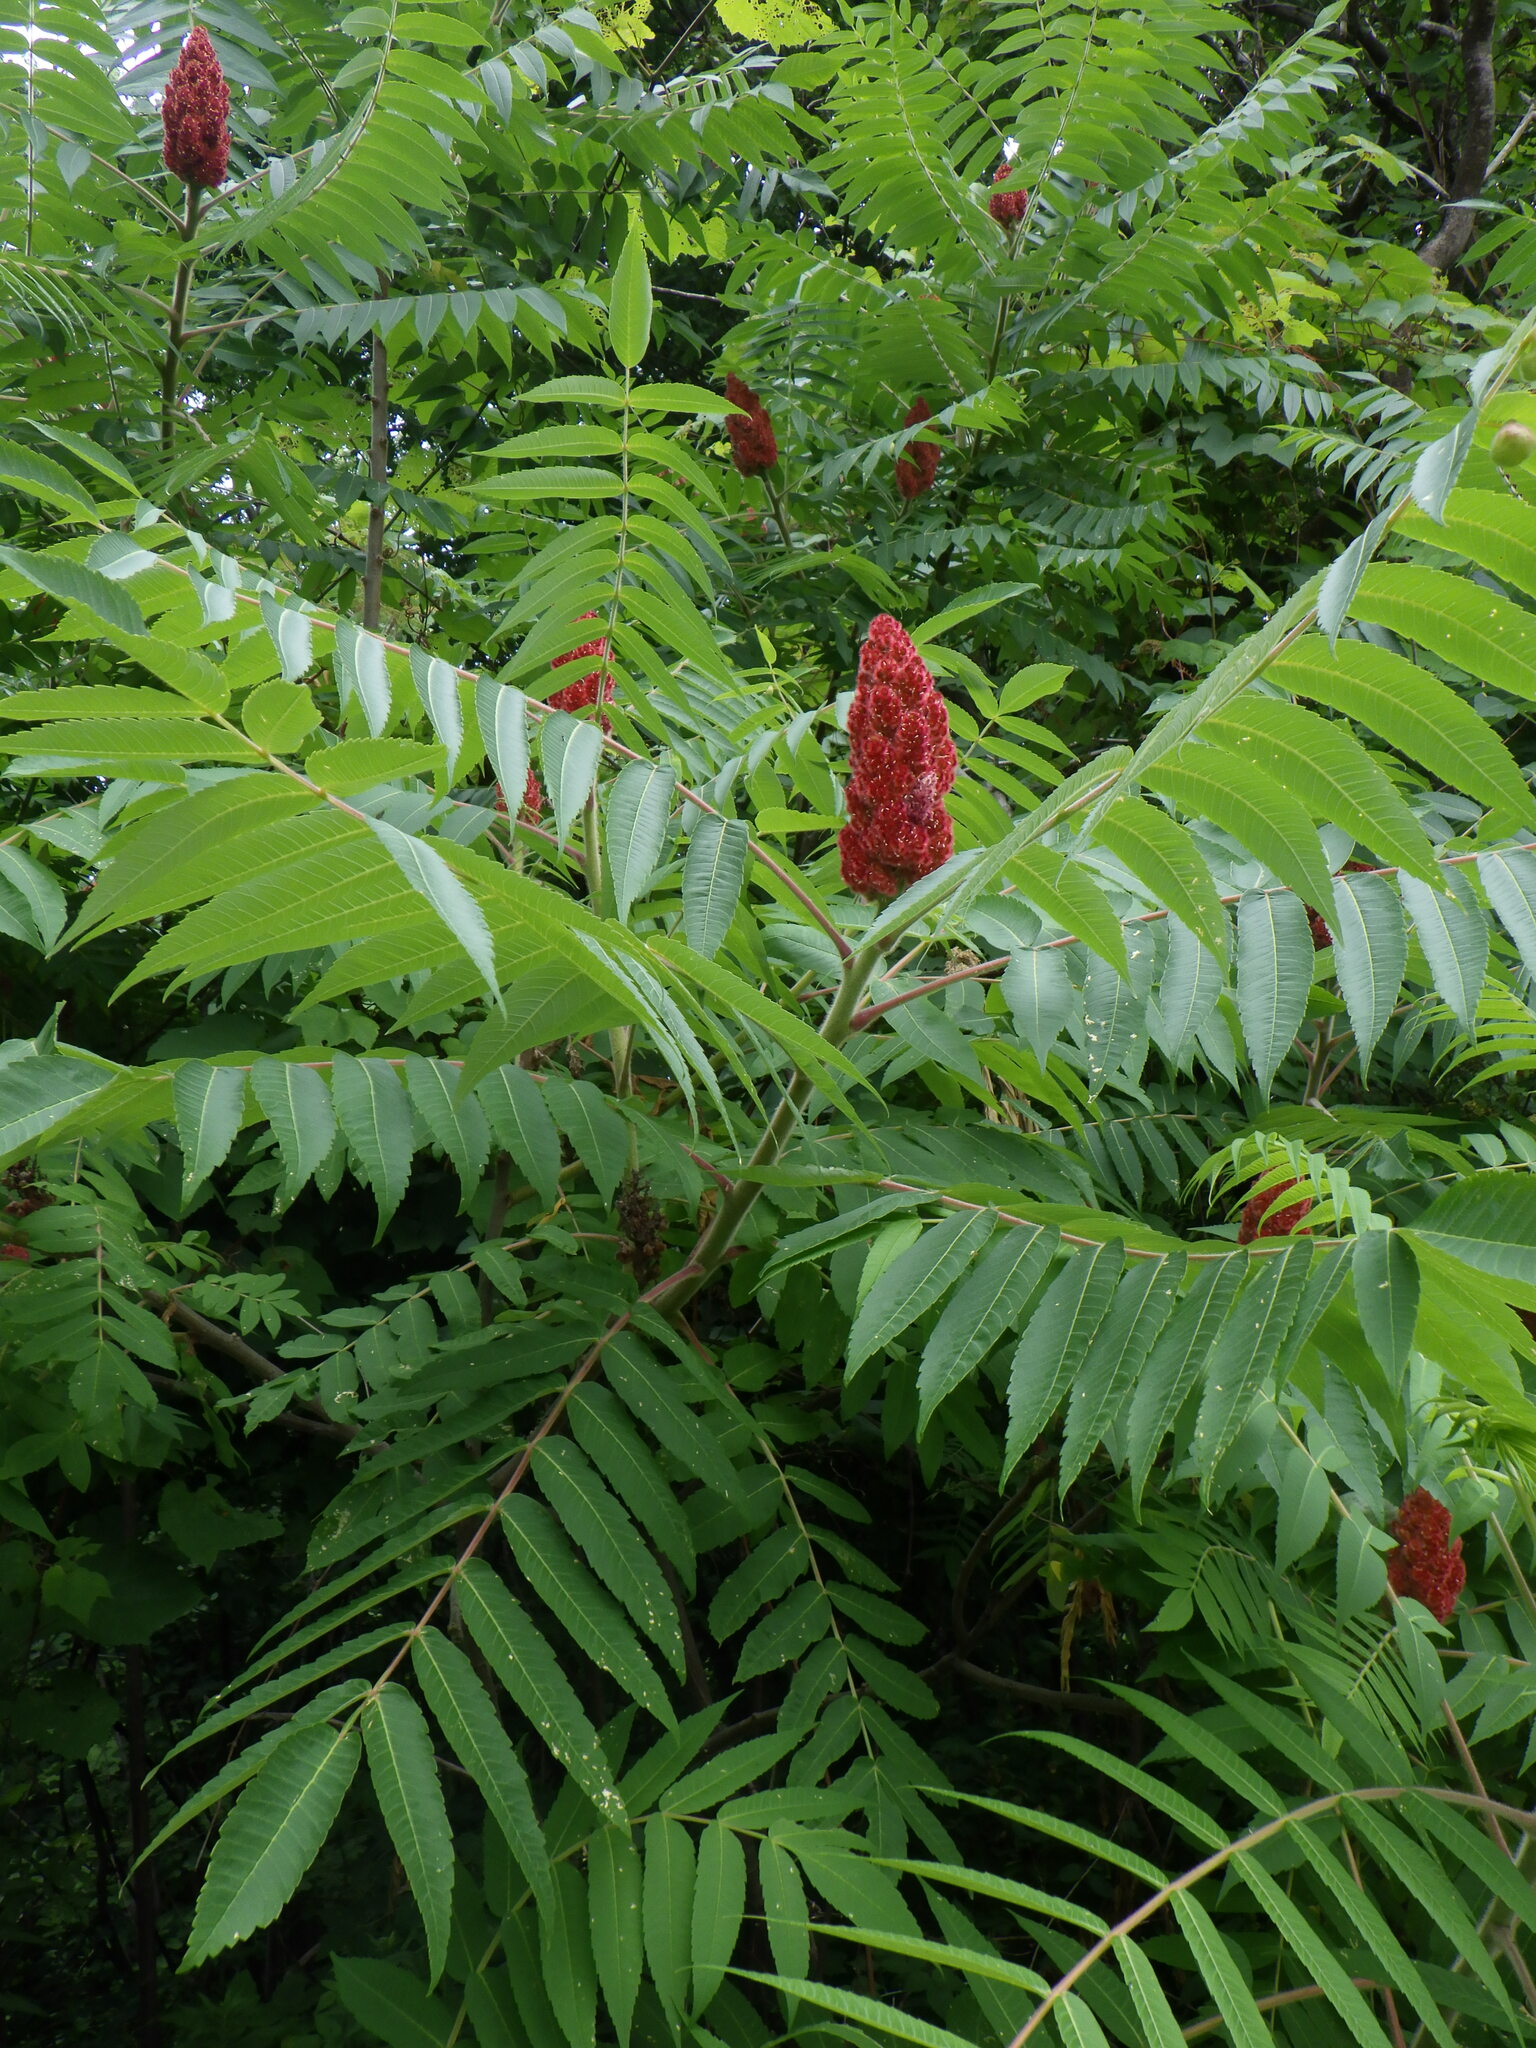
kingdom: Plantae
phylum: Tracheophyta
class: Magnoliopsida
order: Sapindales
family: Anacardiaceae
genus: Rhus
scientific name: Rhus typhina
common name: Staghorn sumac
